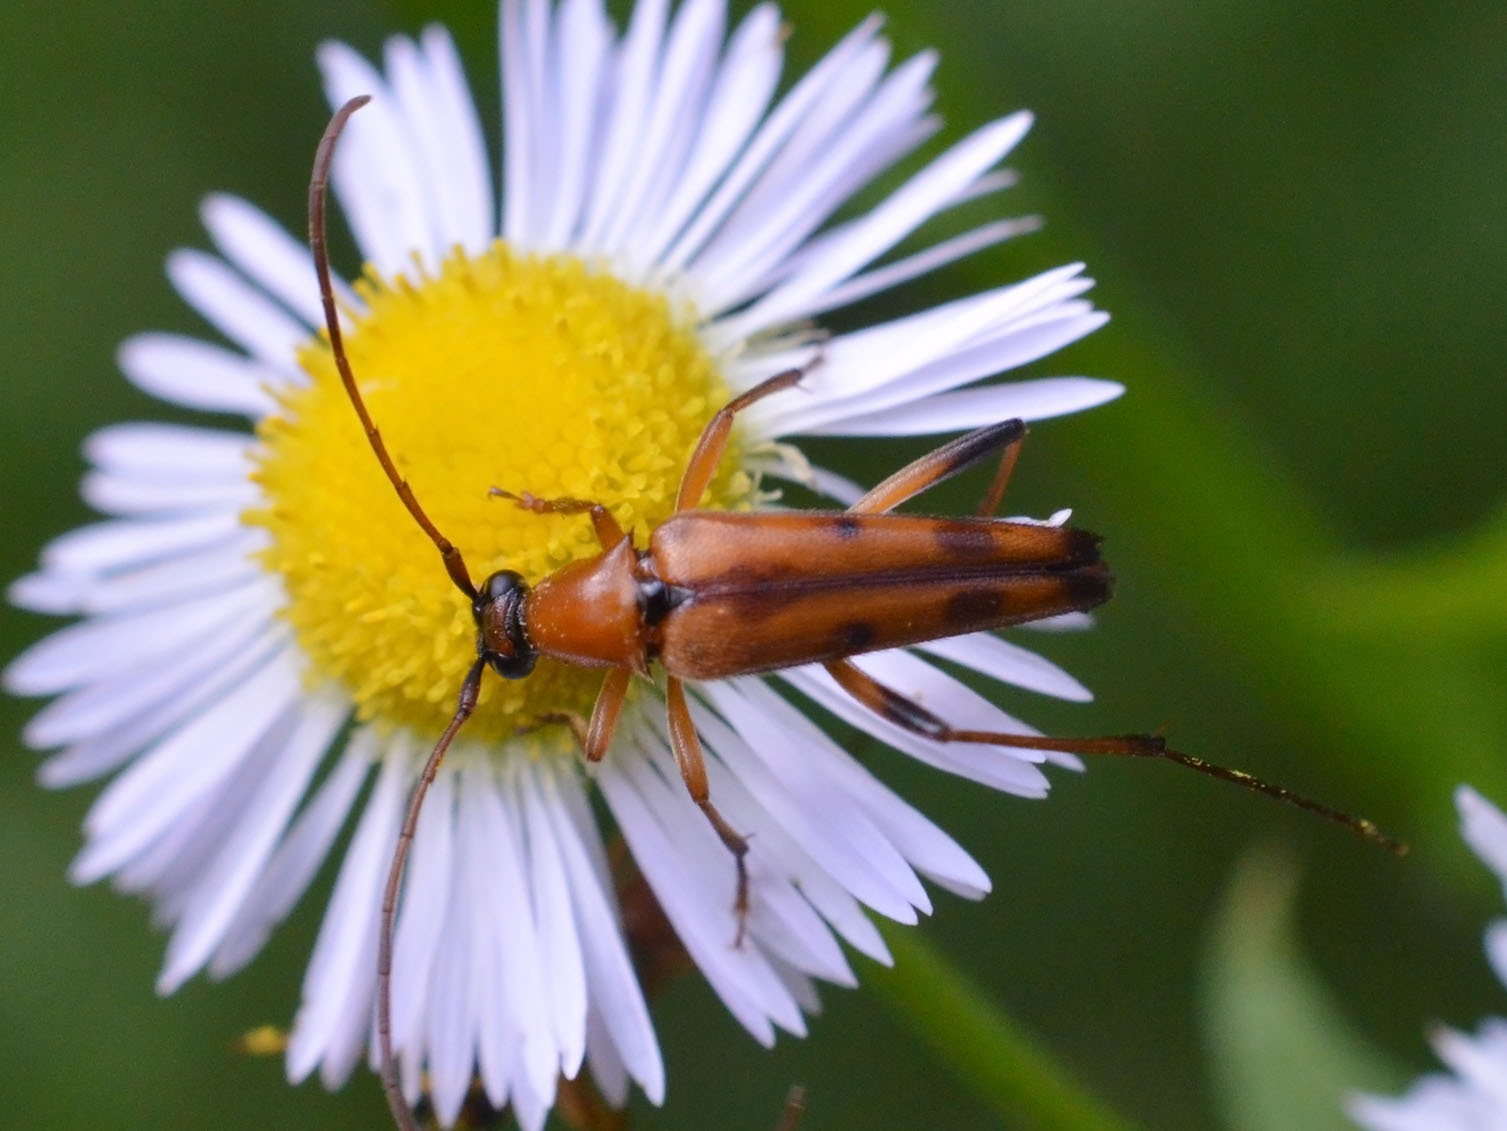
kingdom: Animalia
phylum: Arthropoda
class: Insecta
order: Coleoptera
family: Cerambycidae
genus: Stenurella
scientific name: Stenurella septempunctata
